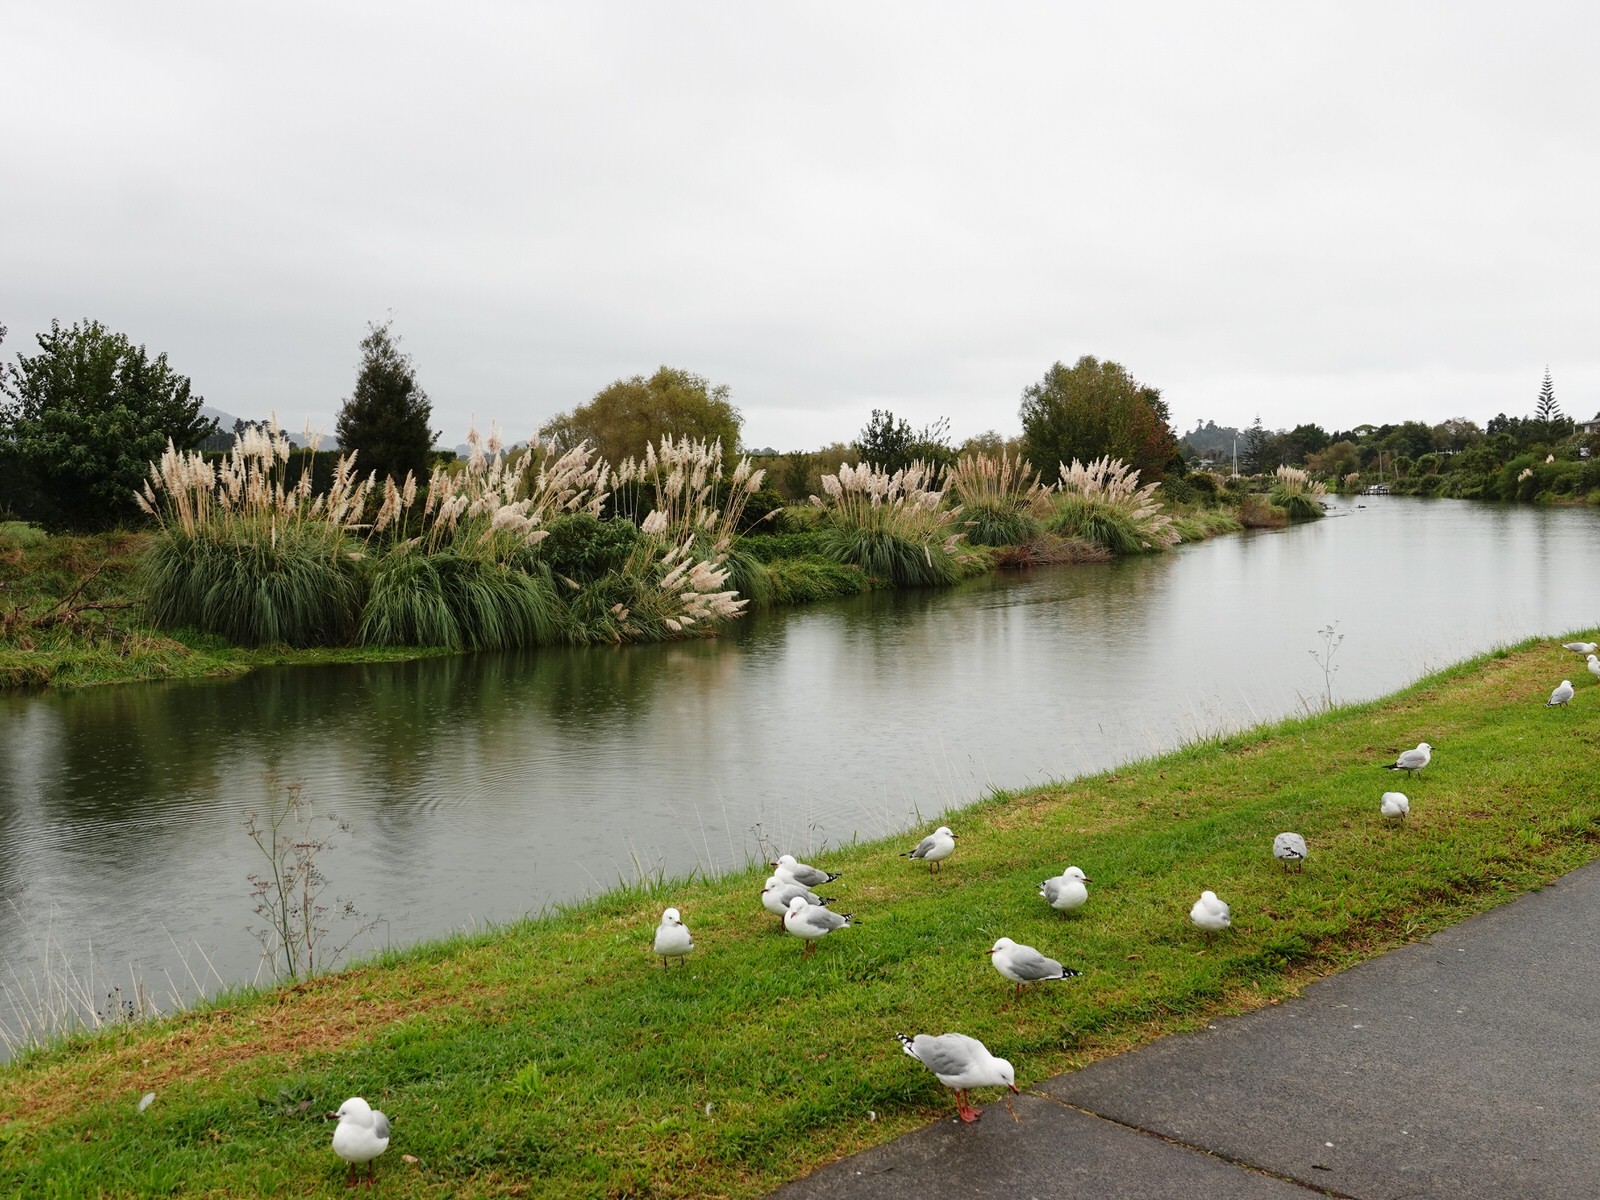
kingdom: Plantae
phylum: Tracheophyta
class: Liliopsida
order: Poales
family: Poaceae
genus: Cortaderia
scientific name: Cortaderia selloana
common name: Uruguayan pampas grass
